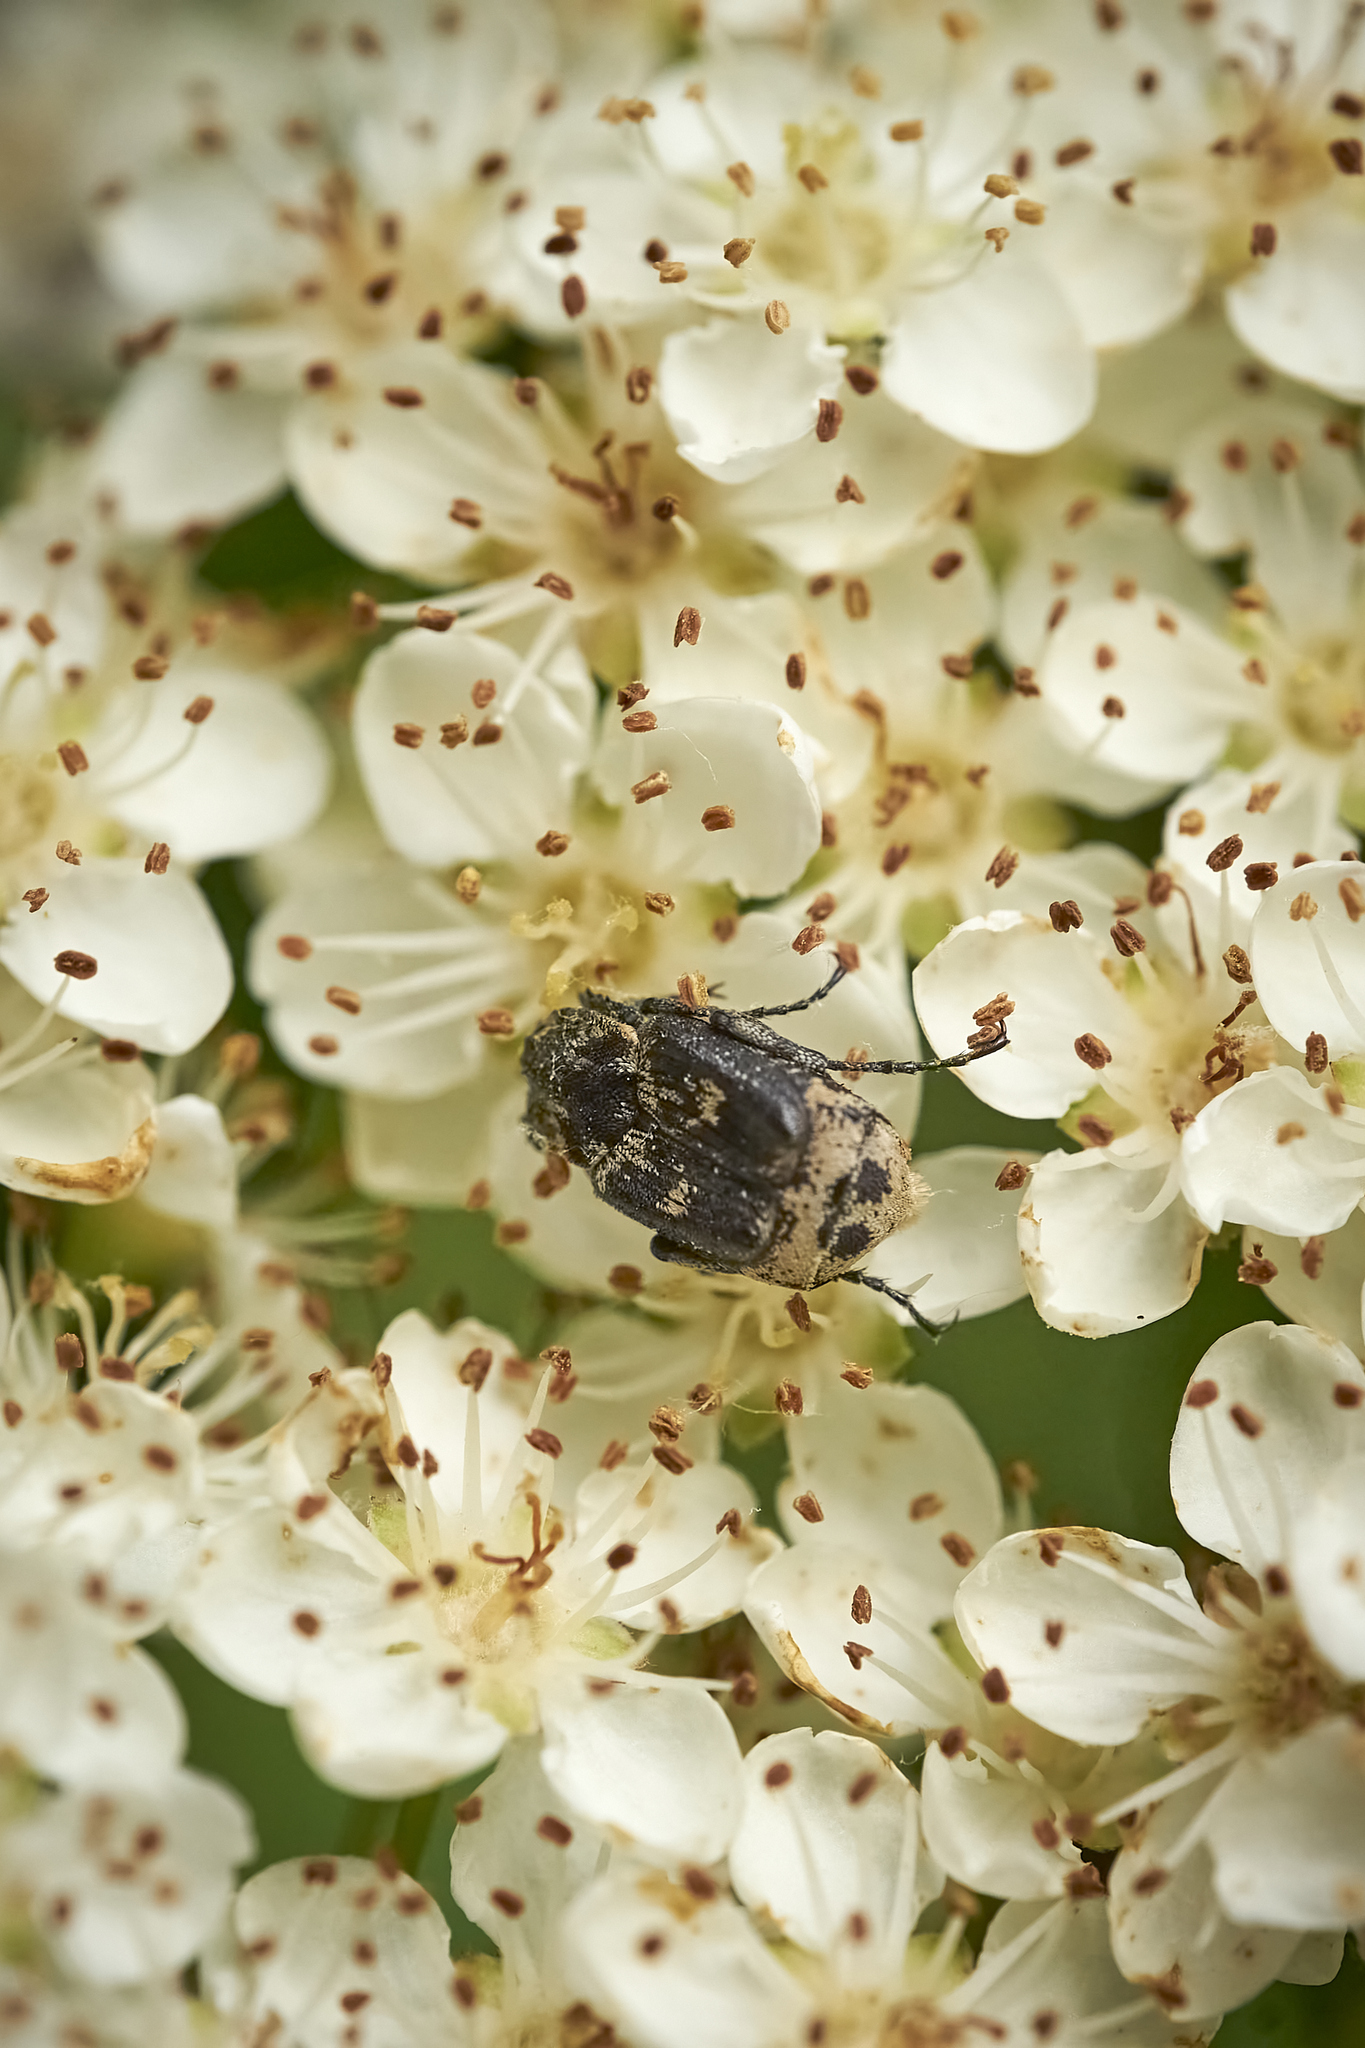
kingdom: Animalia
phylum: Arthropoda
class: Insecta
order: Coleoptera
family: Scarabaeidae
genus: Valgus
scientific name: Valgus hemipterus
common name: Bug flower chafer
